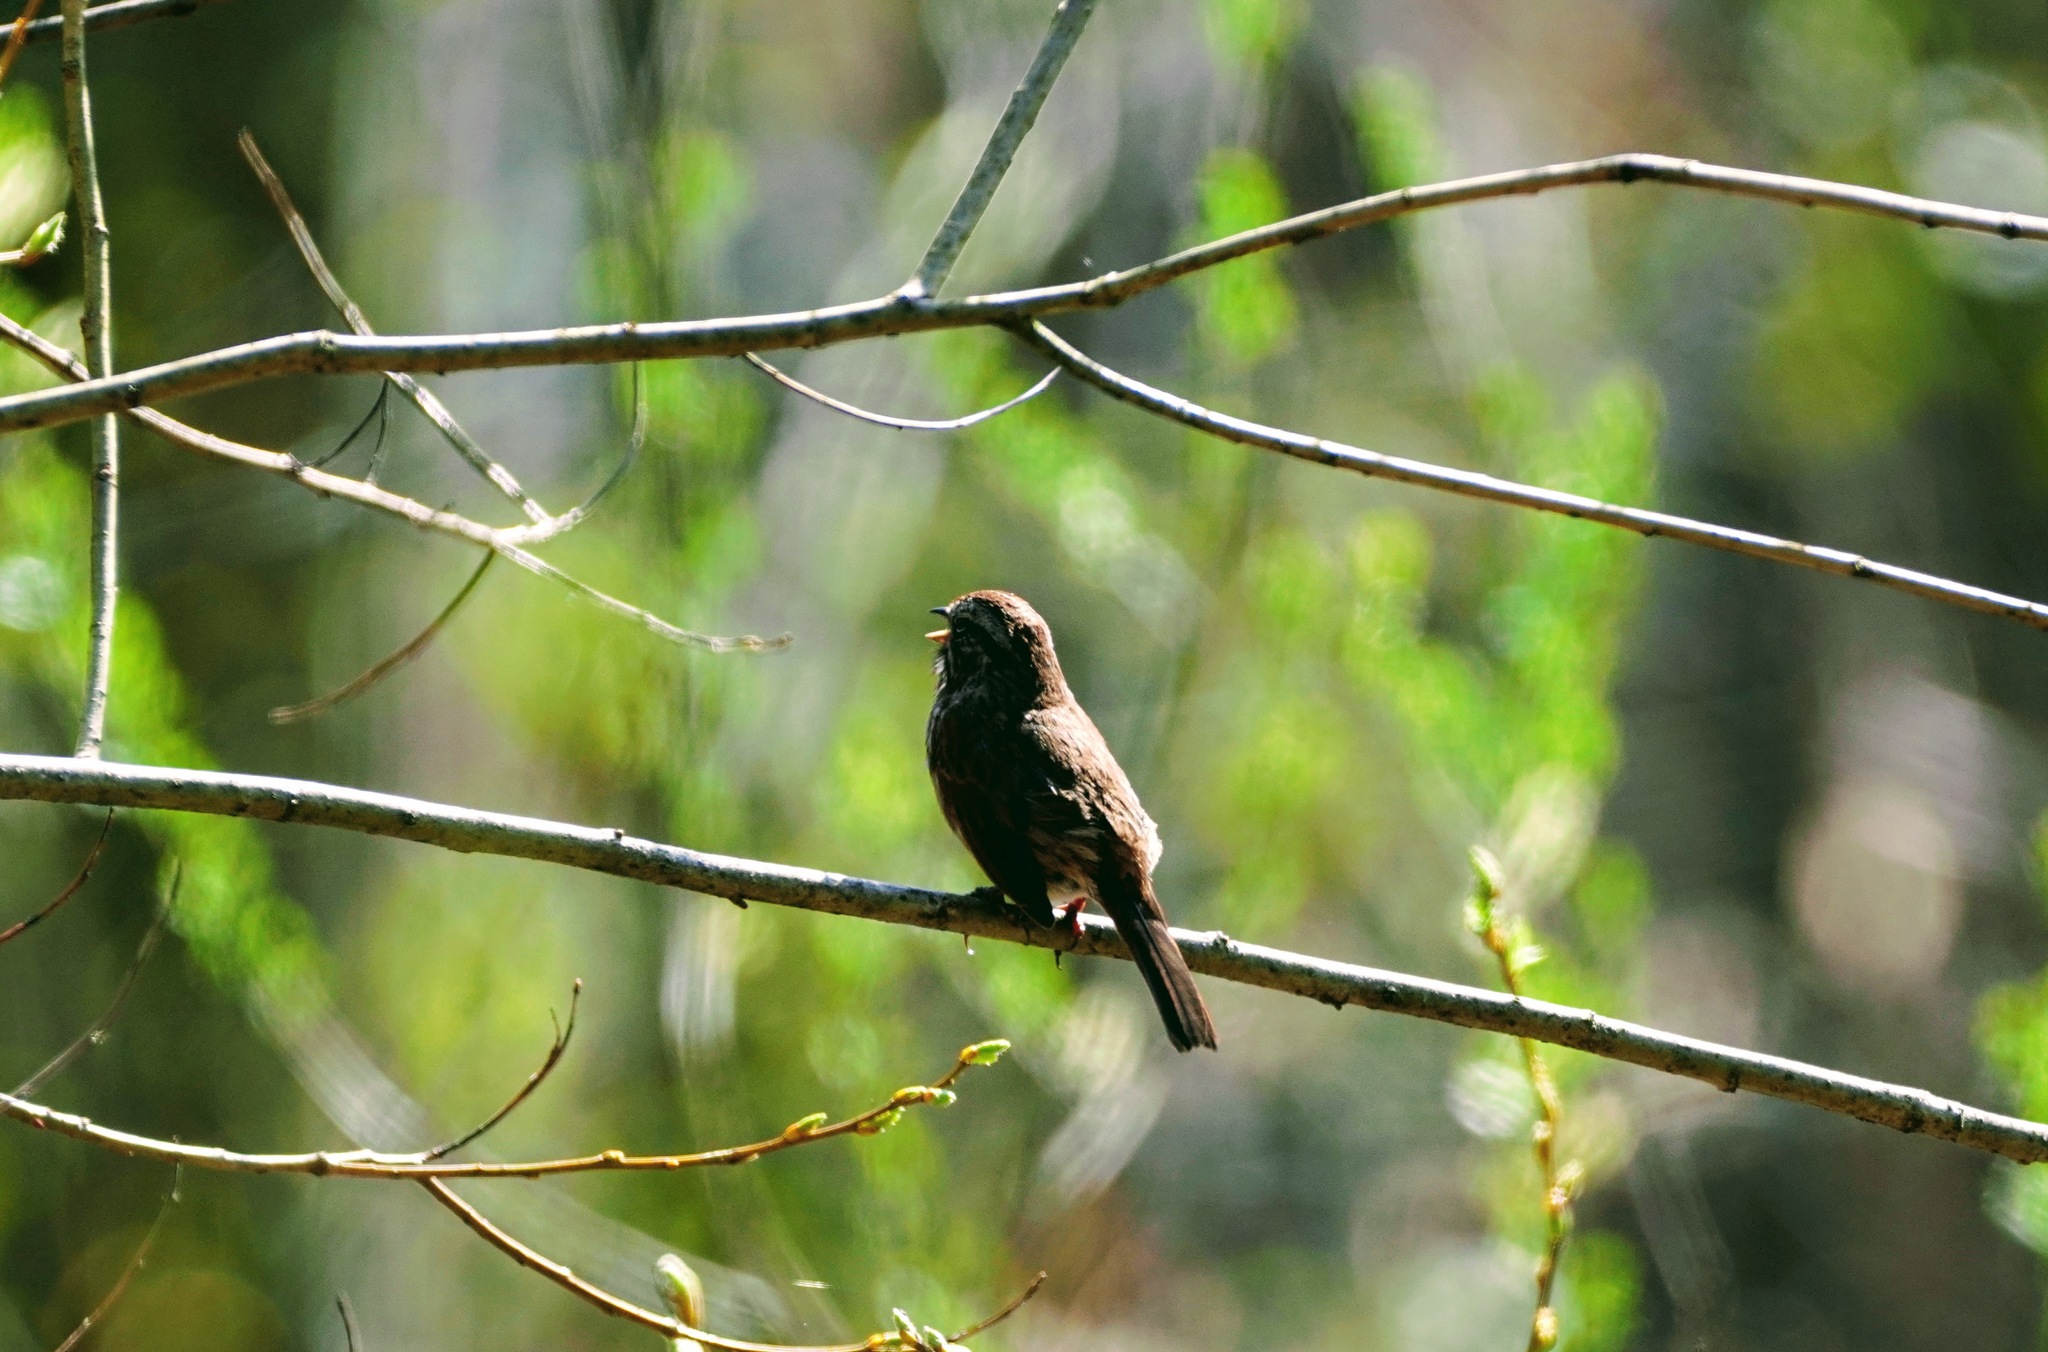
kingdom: Animalia
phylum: Chordata
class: Aves
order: Passeriformes
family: Passerellidae
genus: Melospiza
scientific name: Melospiza melodia
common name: Song sparrow
